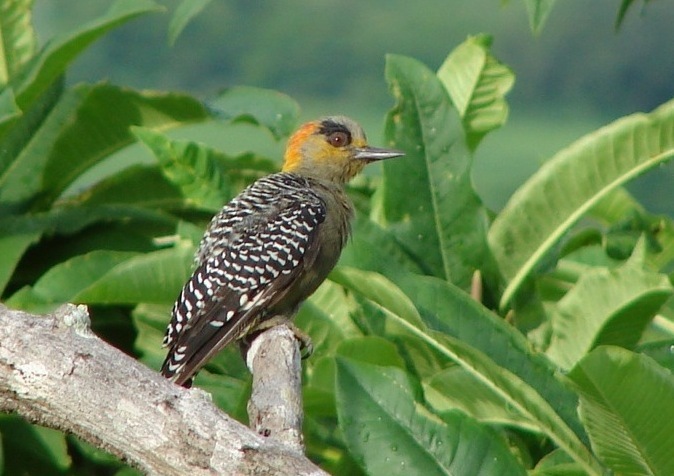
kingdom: Animalia
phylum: Chordata
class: Aves
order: Piciformes
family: Picidae
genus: Melanerpes
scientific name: Melanerpes chrysogenys
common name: Golden-cheeked woodpecker
